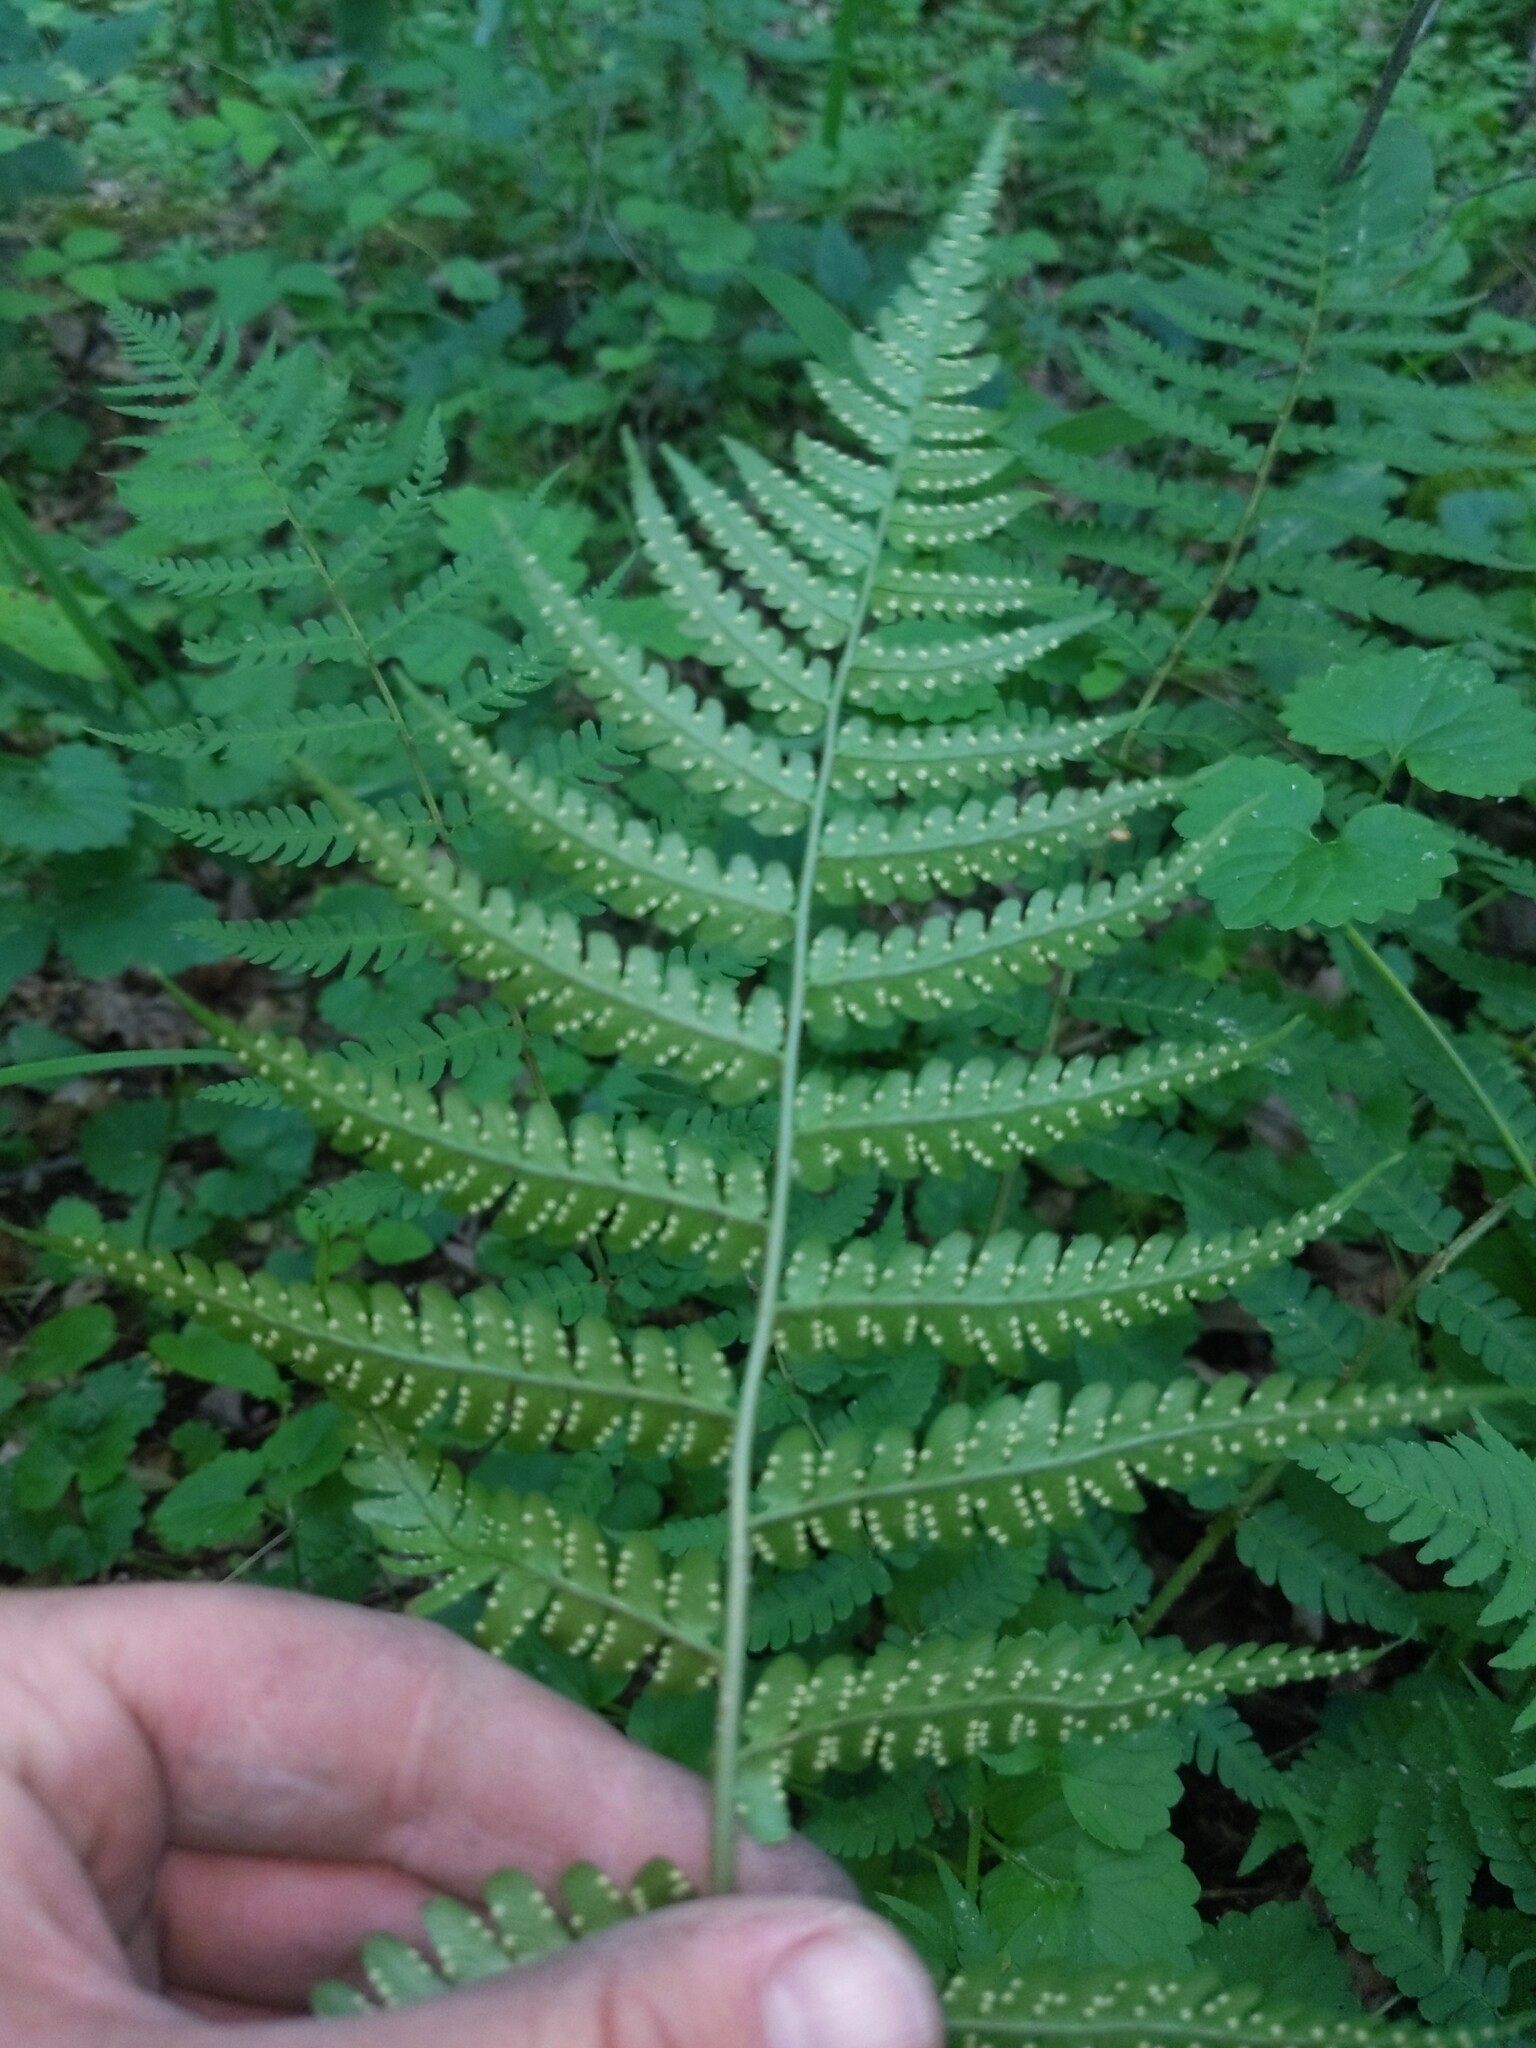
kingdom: Plantae
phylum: Tracheophyta
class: Polypodiopsida
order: Polypodiales
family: Dryopteridaceae
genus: Dryopteris
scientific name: Dryopteris marginalis
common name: Marginal wood fern
